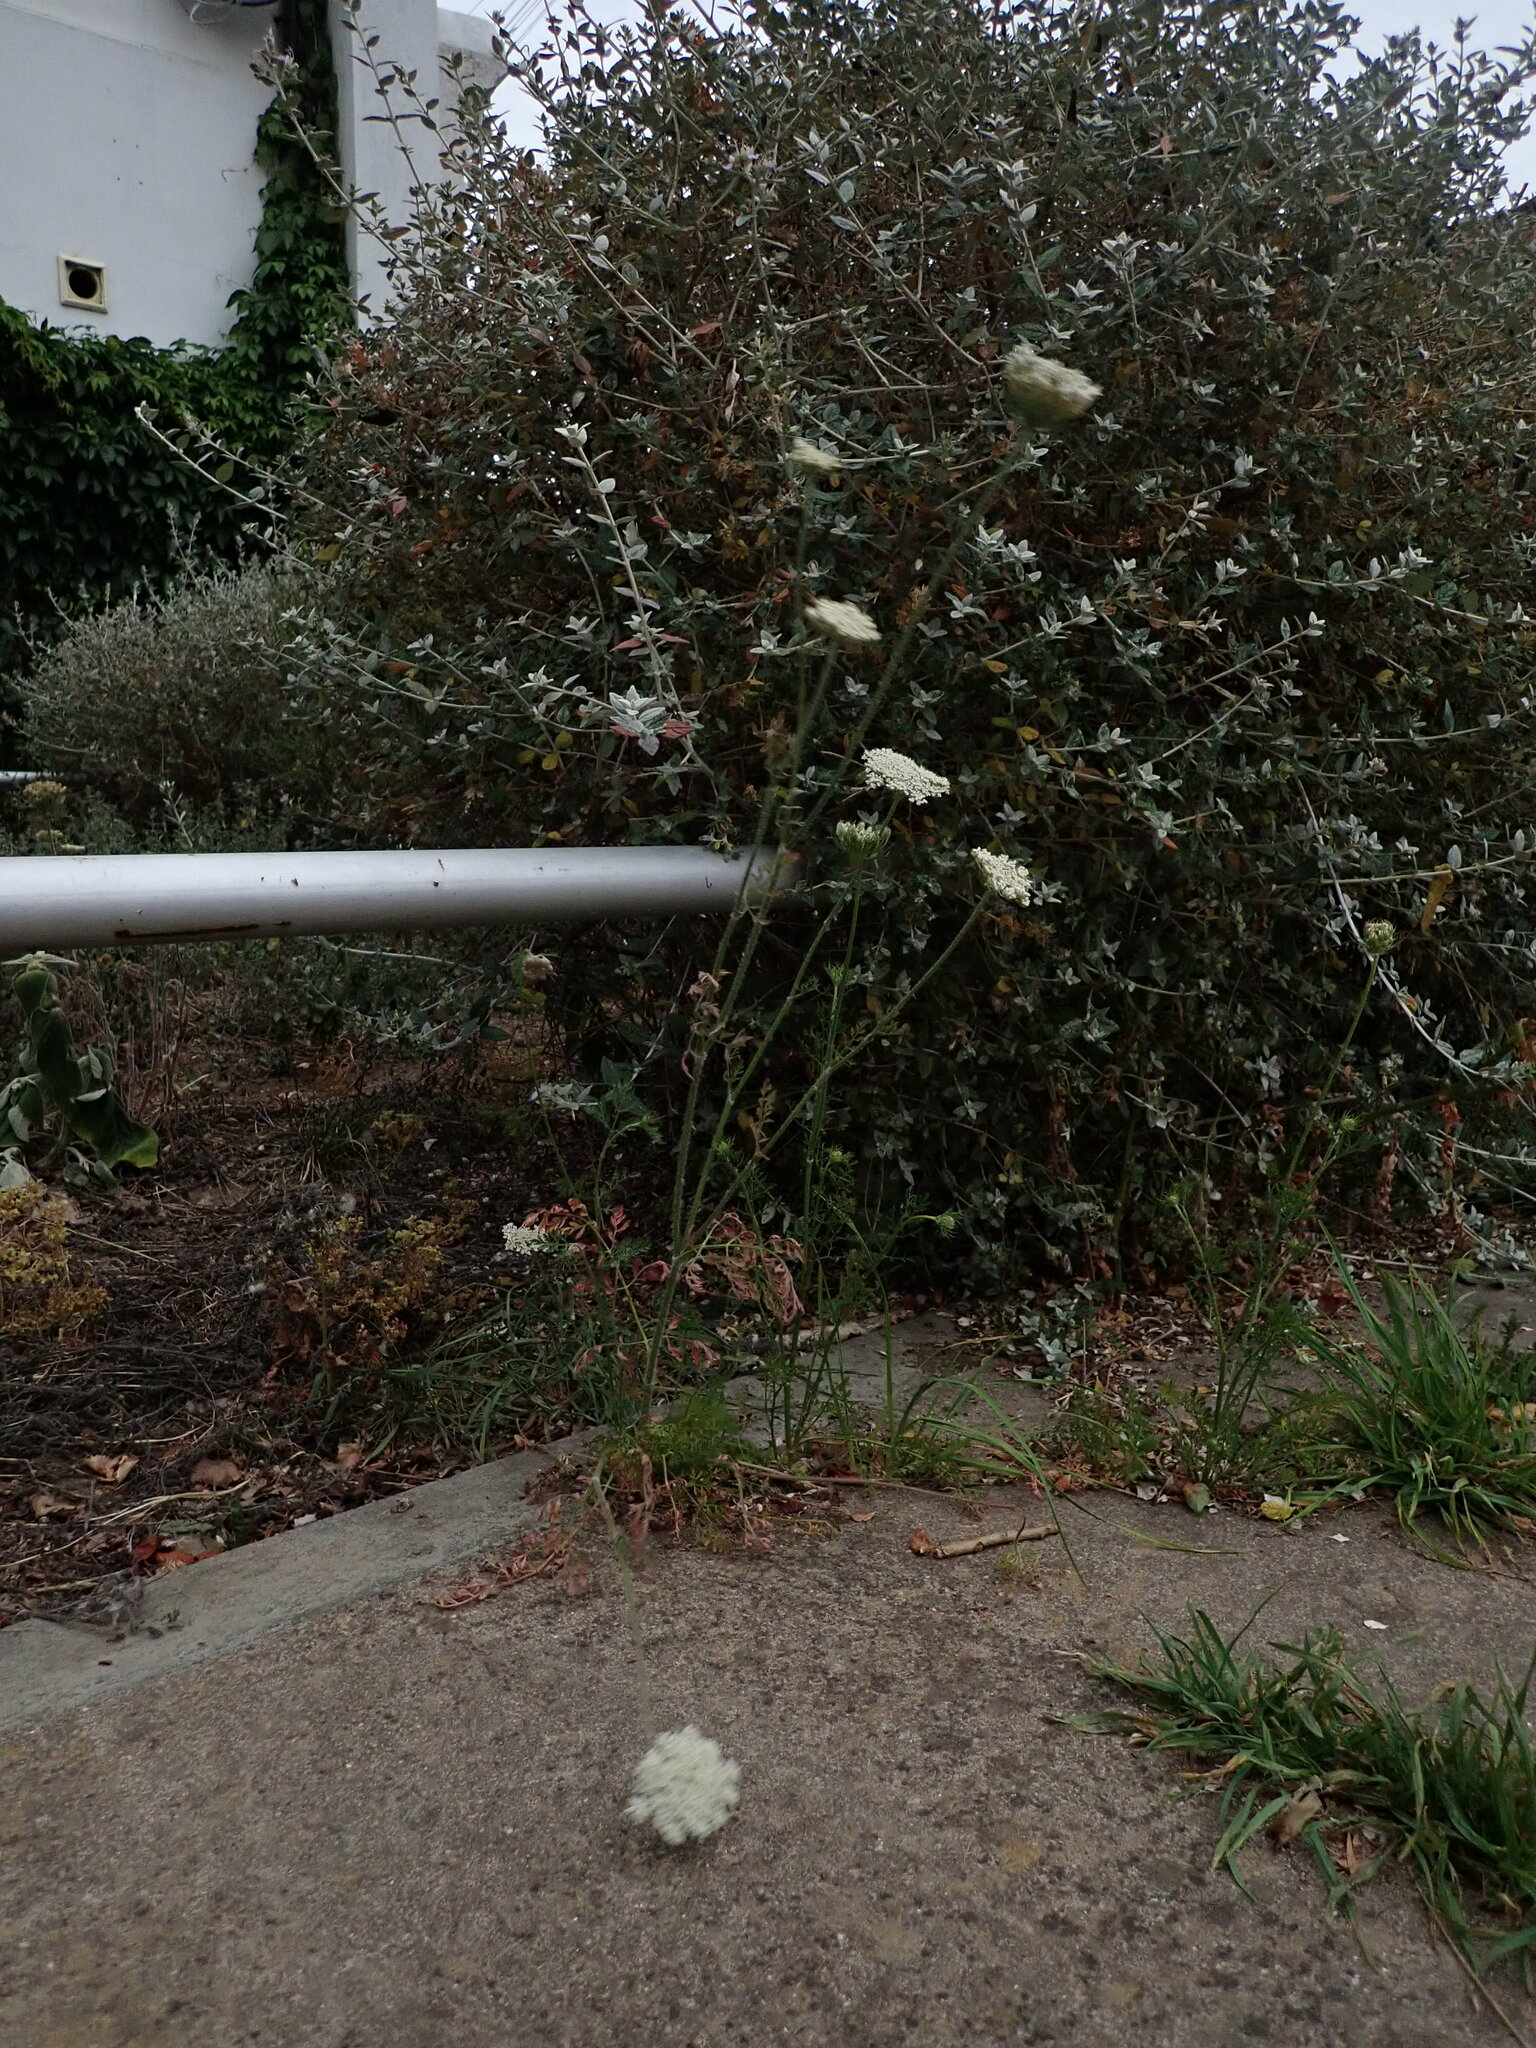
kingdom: Plantae
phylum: Tracheophyta
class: Magnoliopsida
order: Apiales
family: Apiaceae
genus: Daucus
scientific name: Daucus carota
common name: Wild carrot
